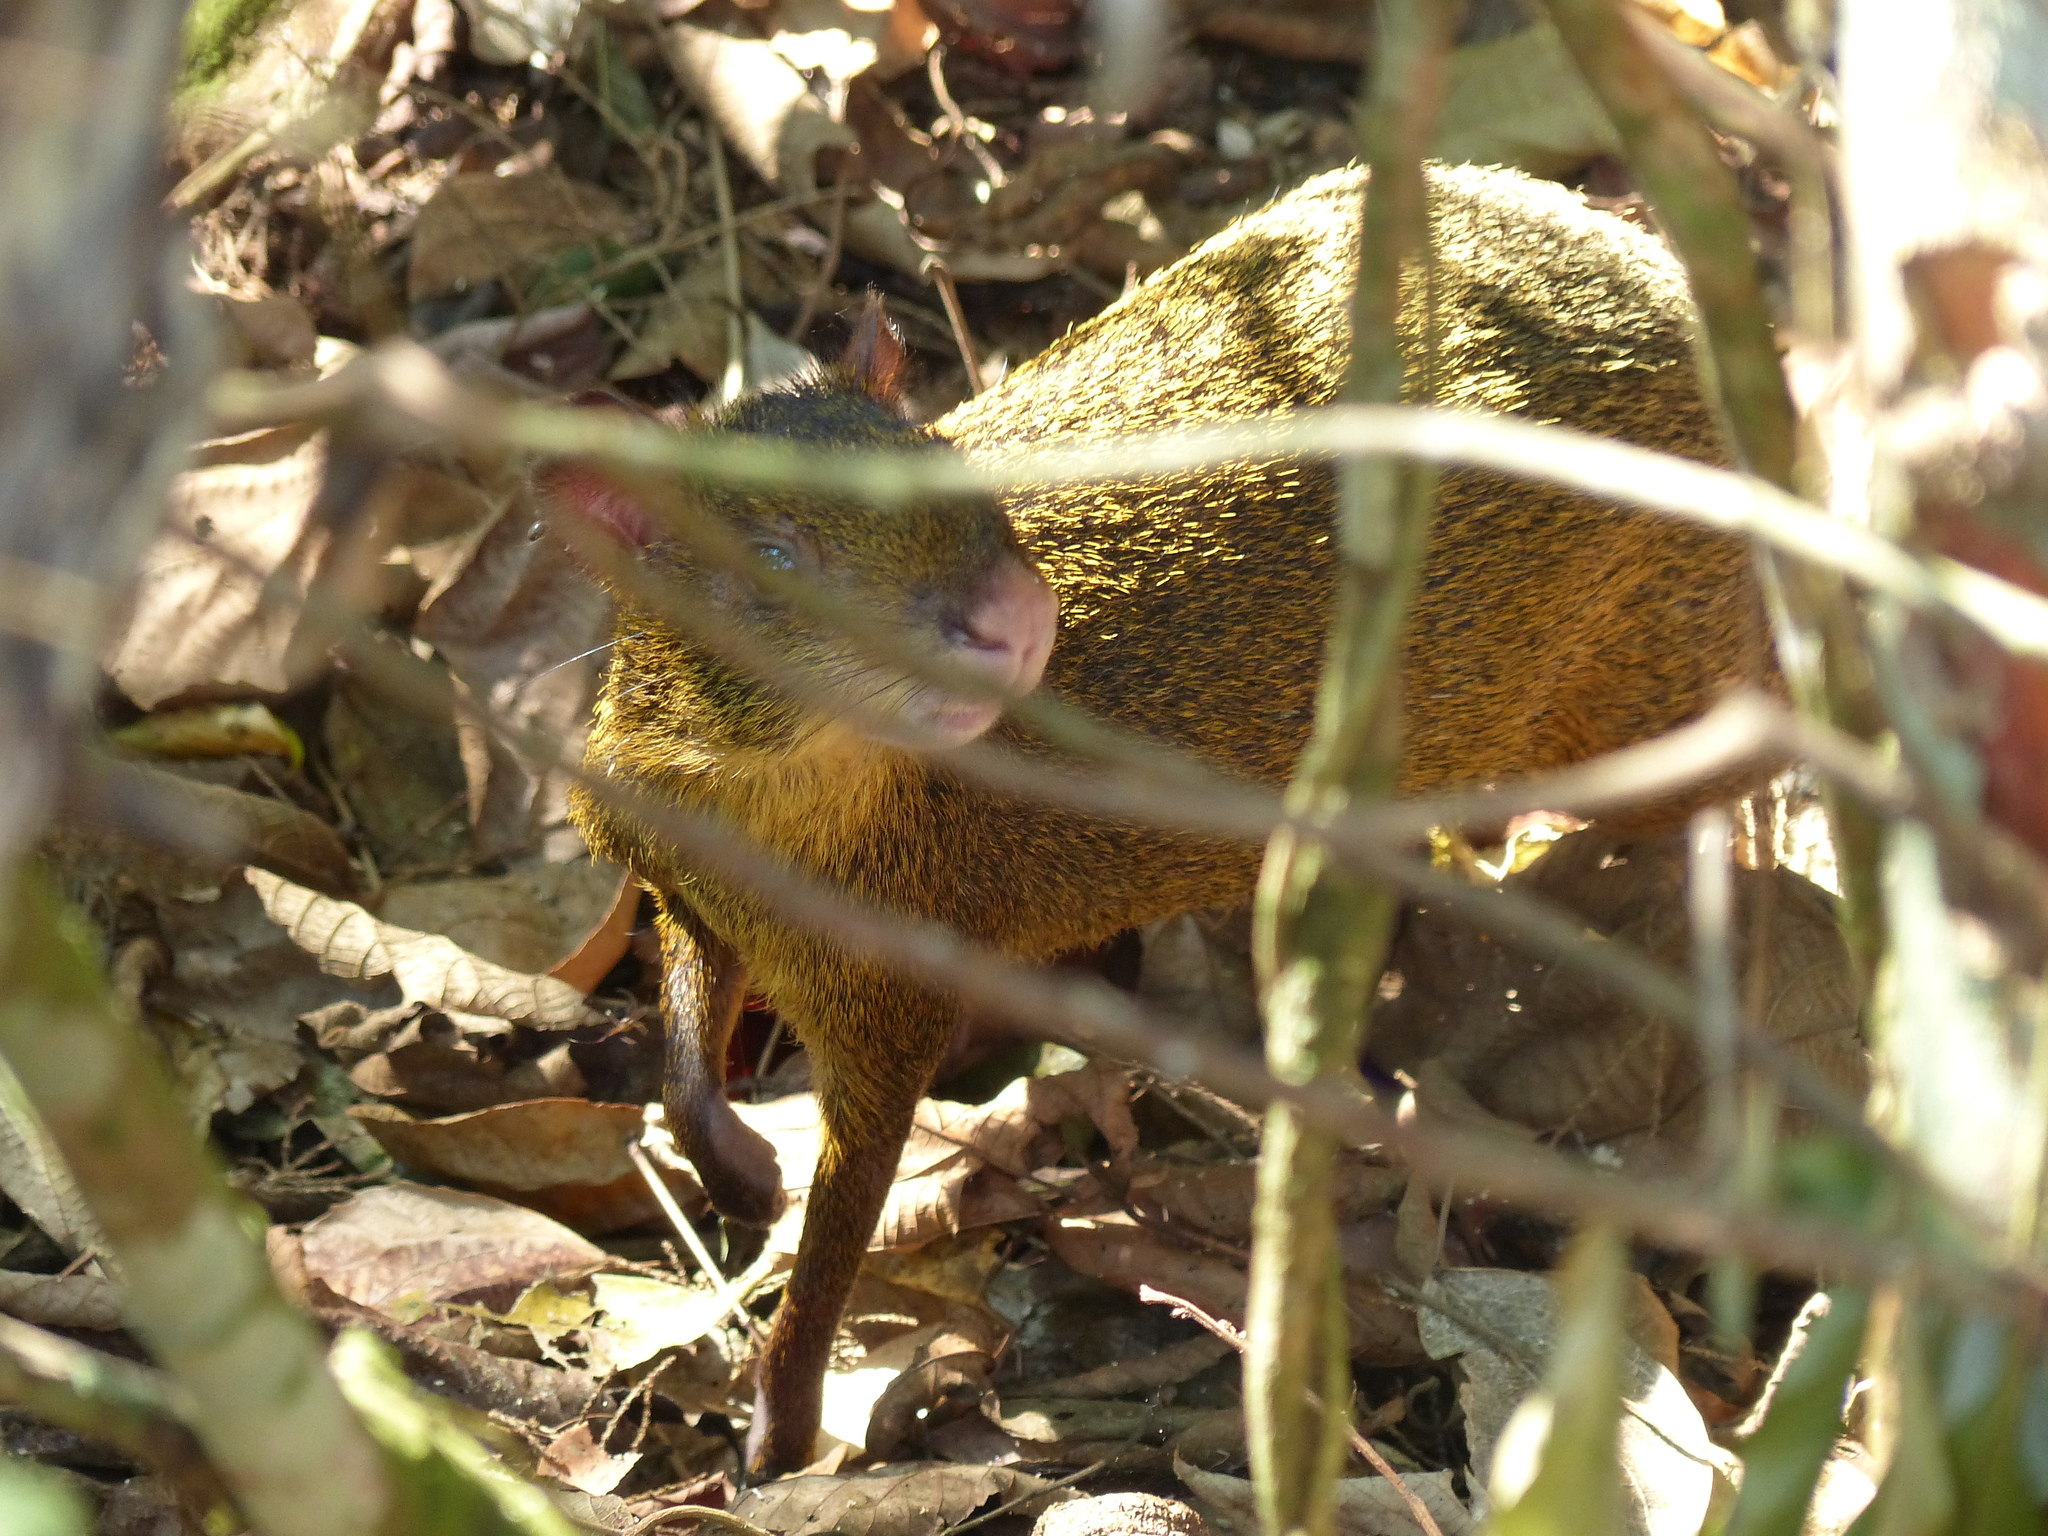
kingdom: Animalia
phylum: Chordata
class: Mammalia
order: Rodentia
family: Dasyproctidae
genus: Dasyprocta
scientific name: Dasyprocta azarae
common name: Azara's agouti
